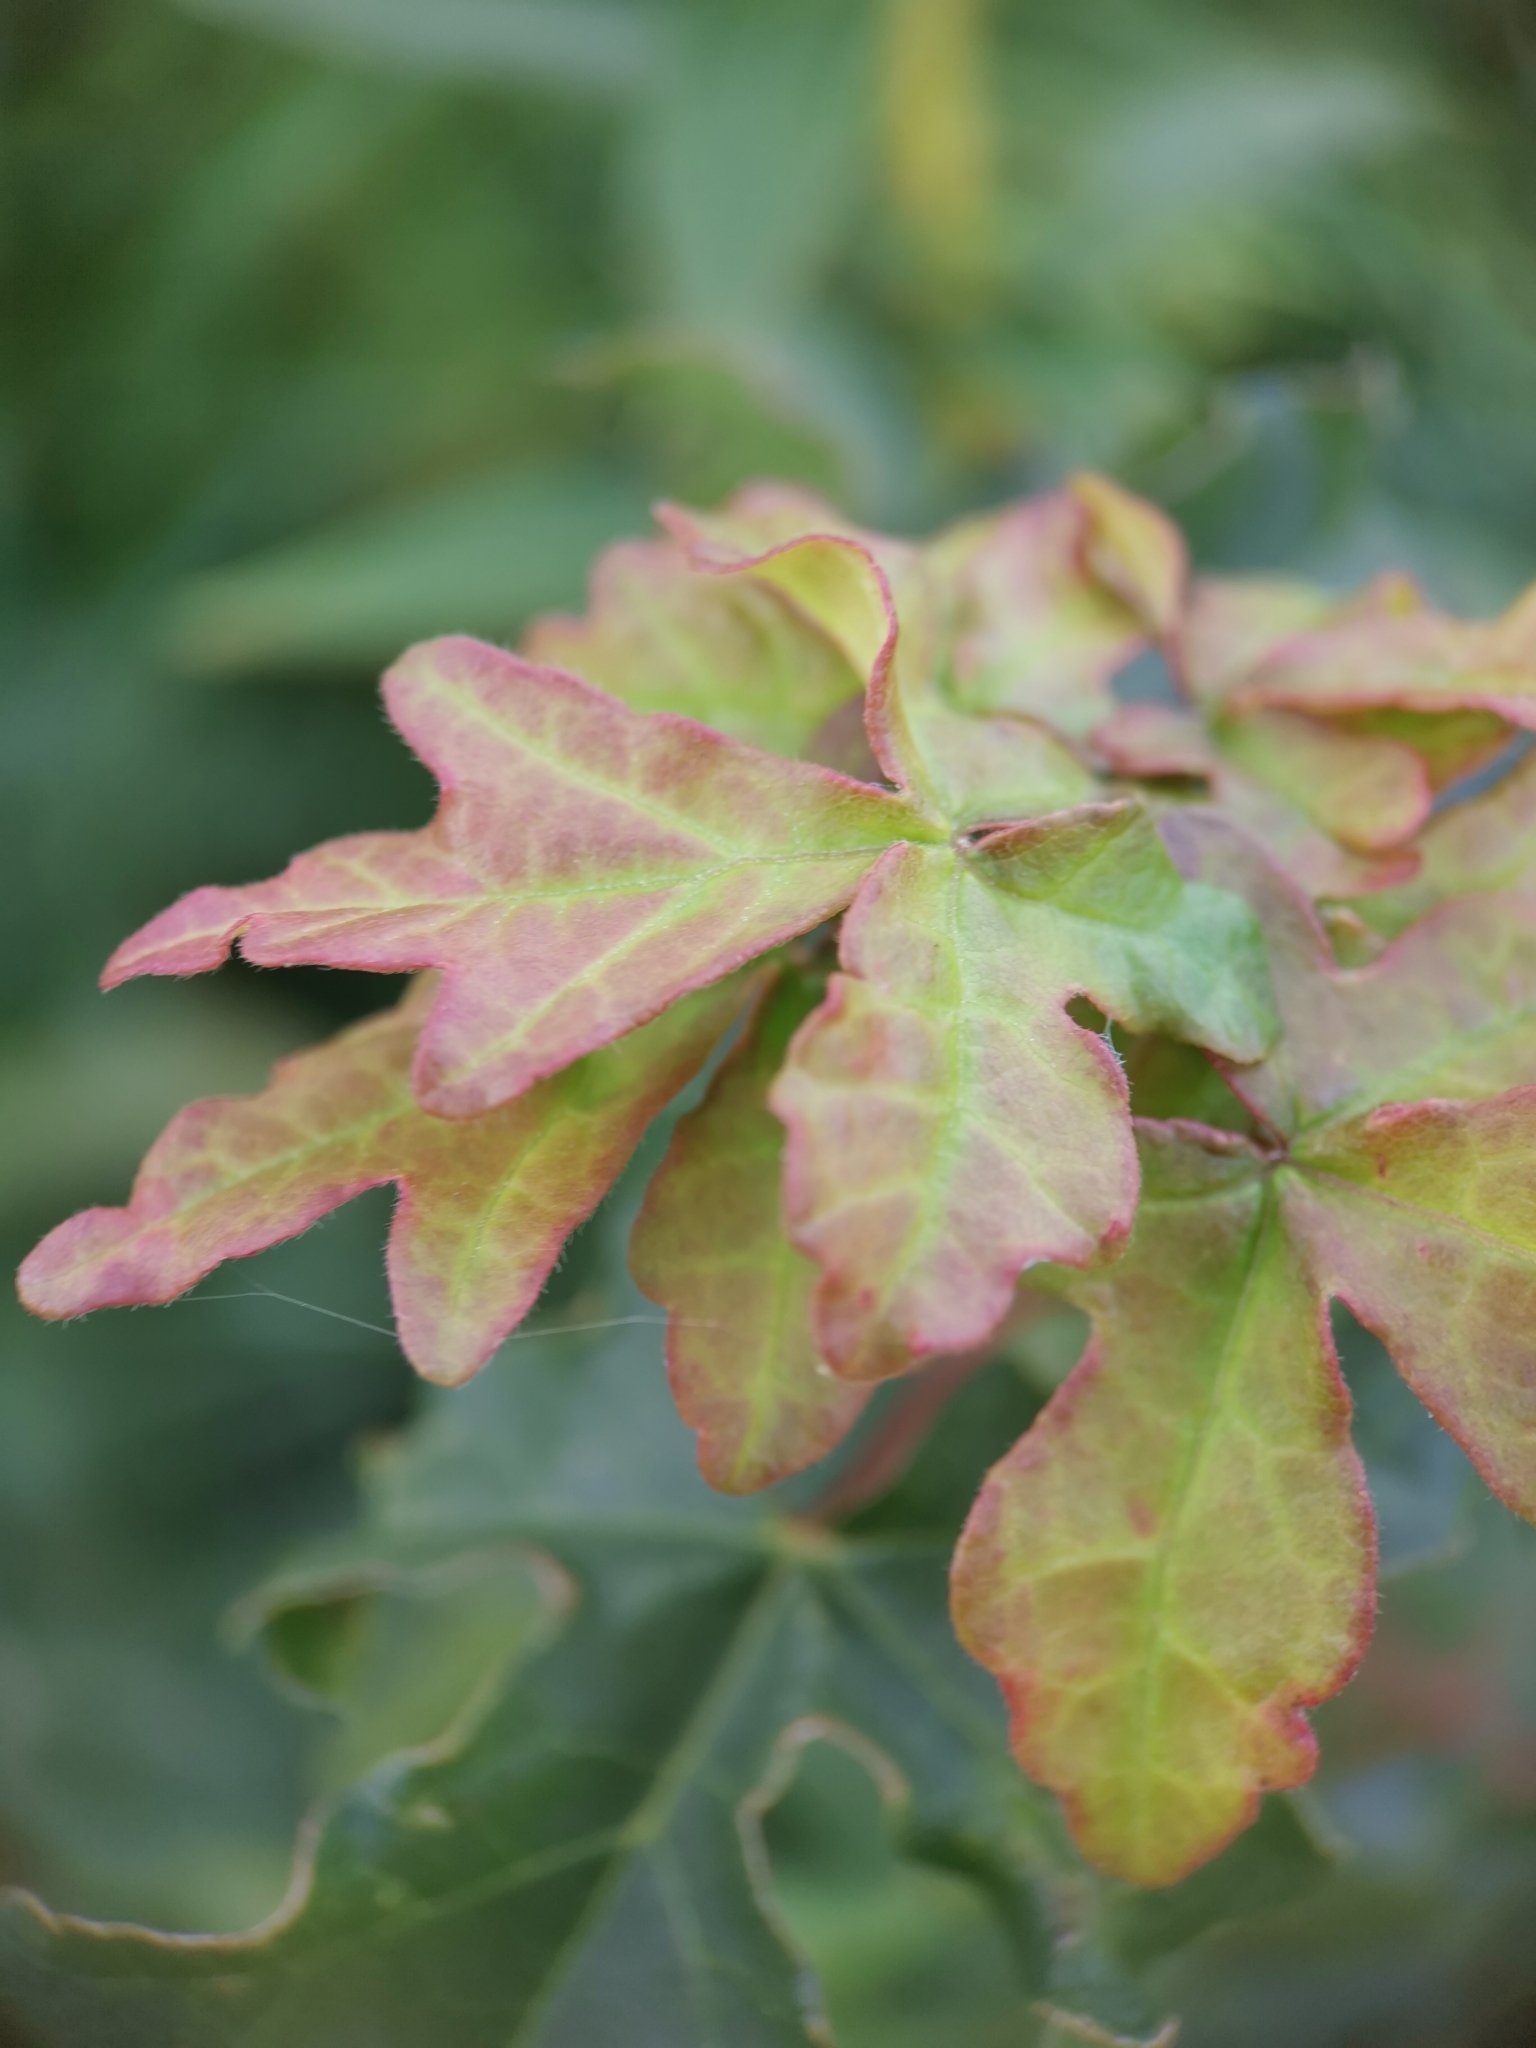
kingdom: Plantae
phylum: Tracheophyta
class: Magnoliopsida
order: Sapindales
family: Sapindaceae
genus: Acer
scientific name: Acer campestre
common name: Field maple
